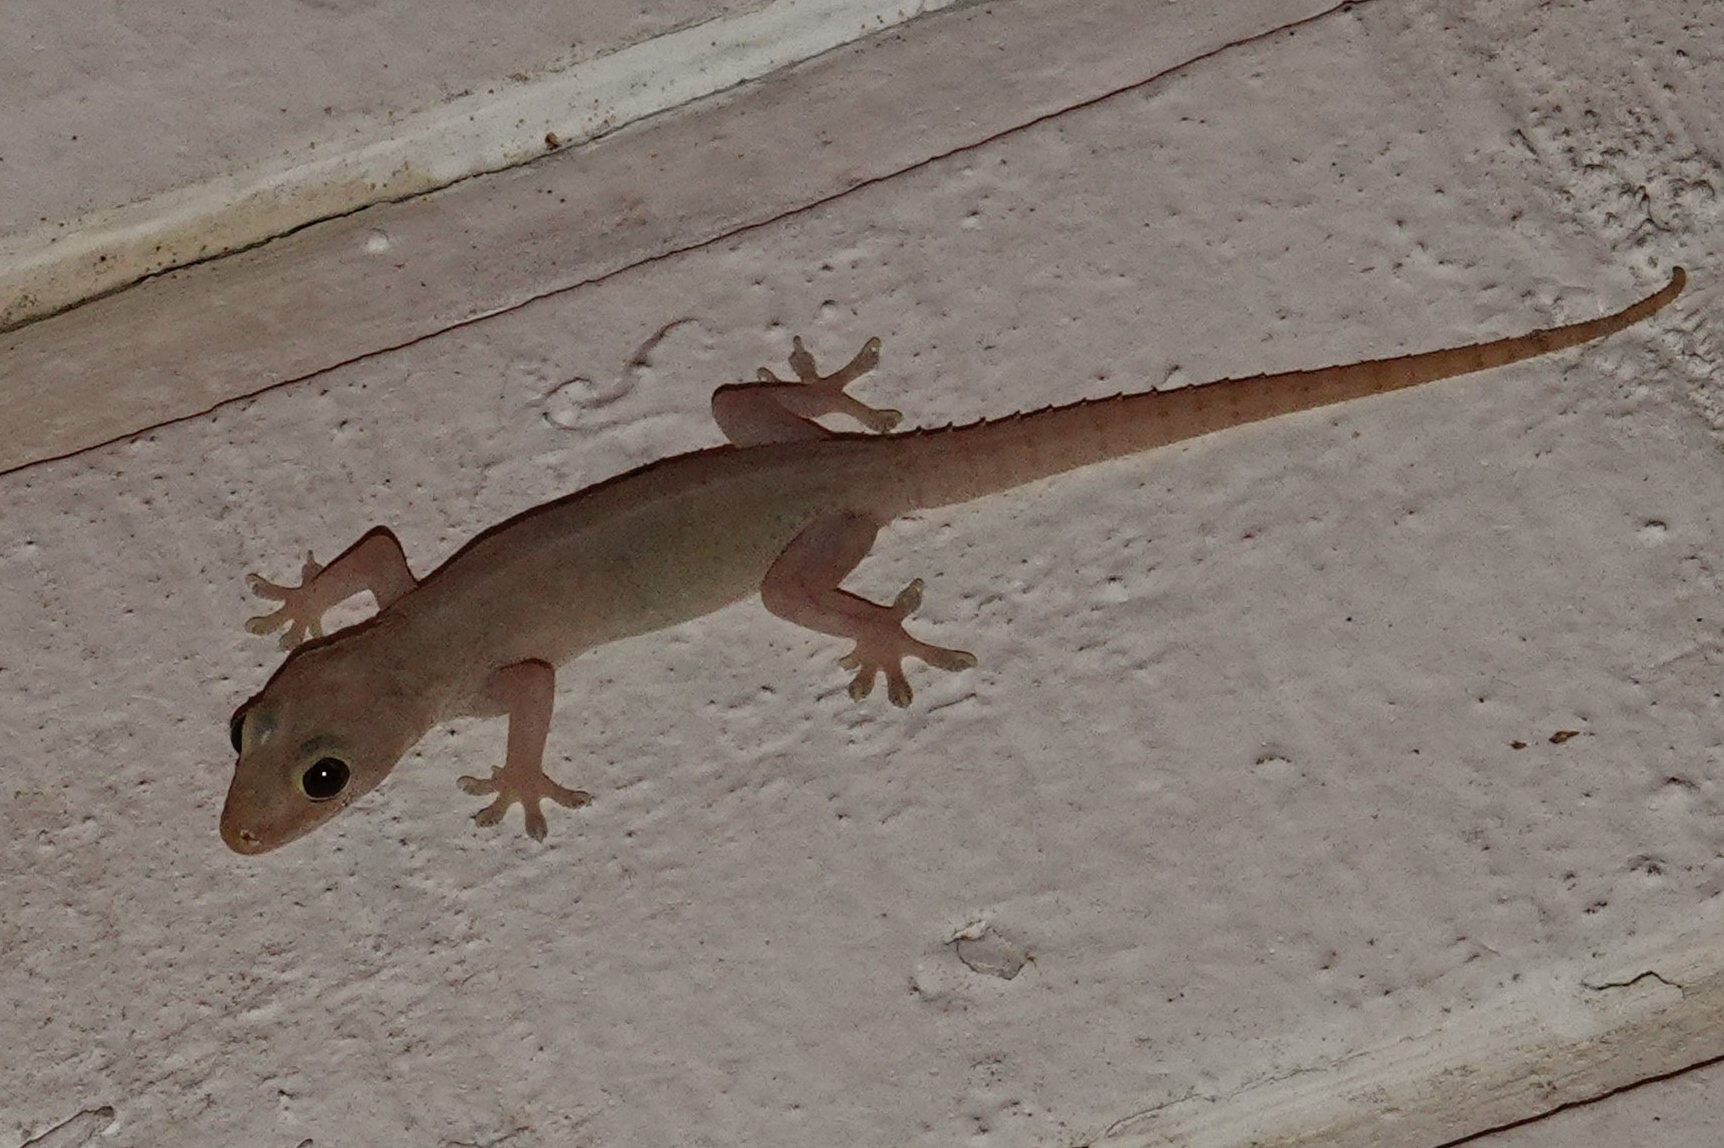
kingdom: Animalia
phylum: Chordata
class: Squamata
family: Gekkonidae
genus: Hemidactylus
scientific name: Hemidactylus frenatus
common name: Common house gecko
